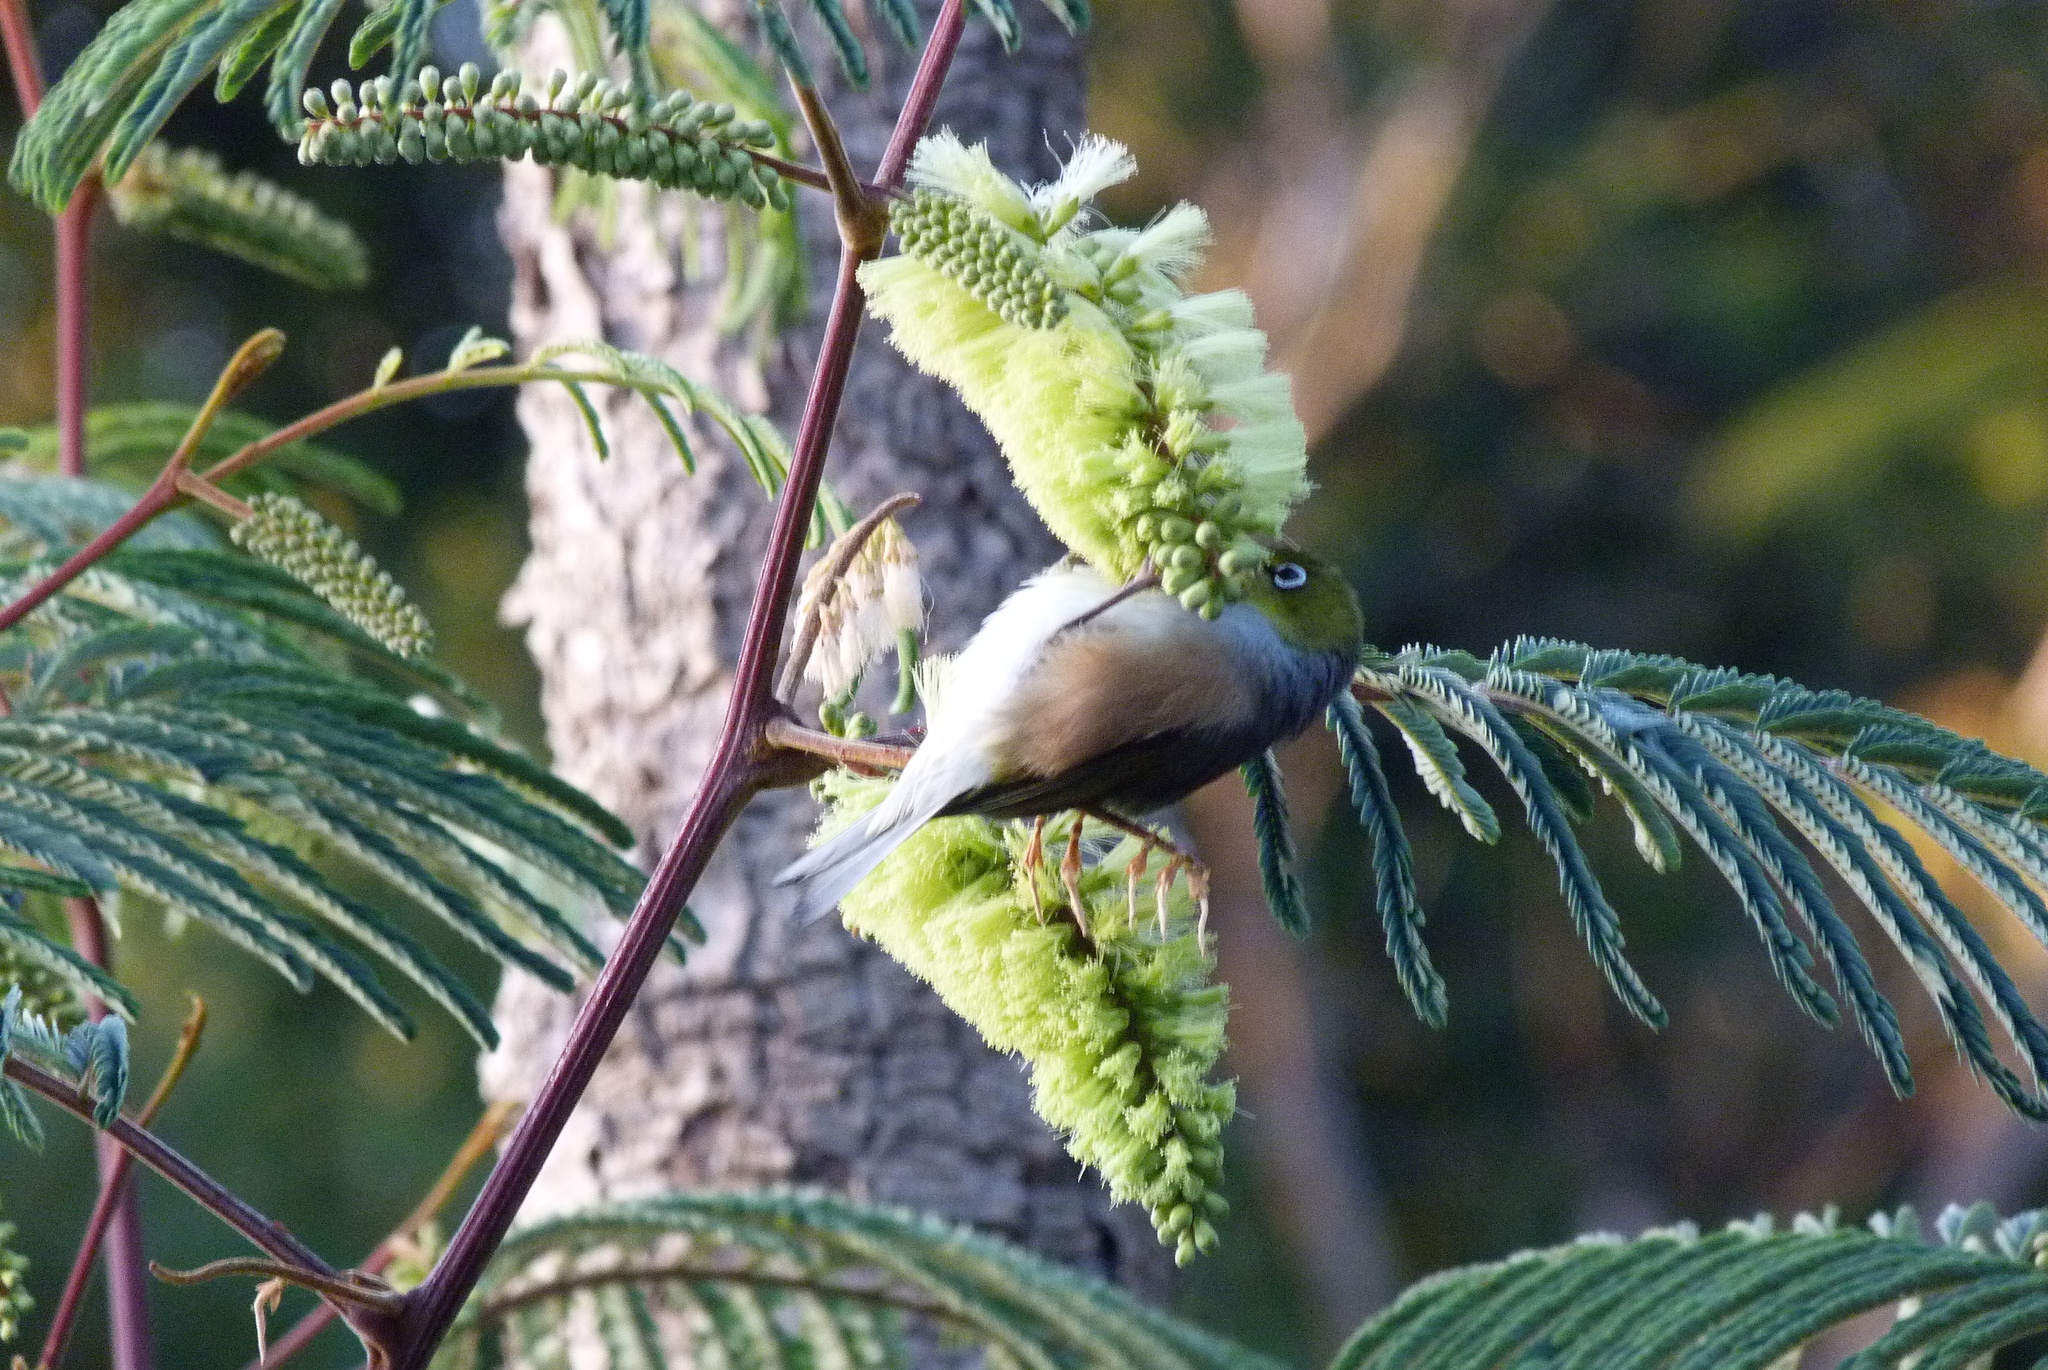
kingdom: Animalia
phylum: Chordata
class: Aves
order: Passeriformes
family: Zosteropidae
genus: Zosterops
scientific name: Zosterops lateralis
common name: Silvereye
